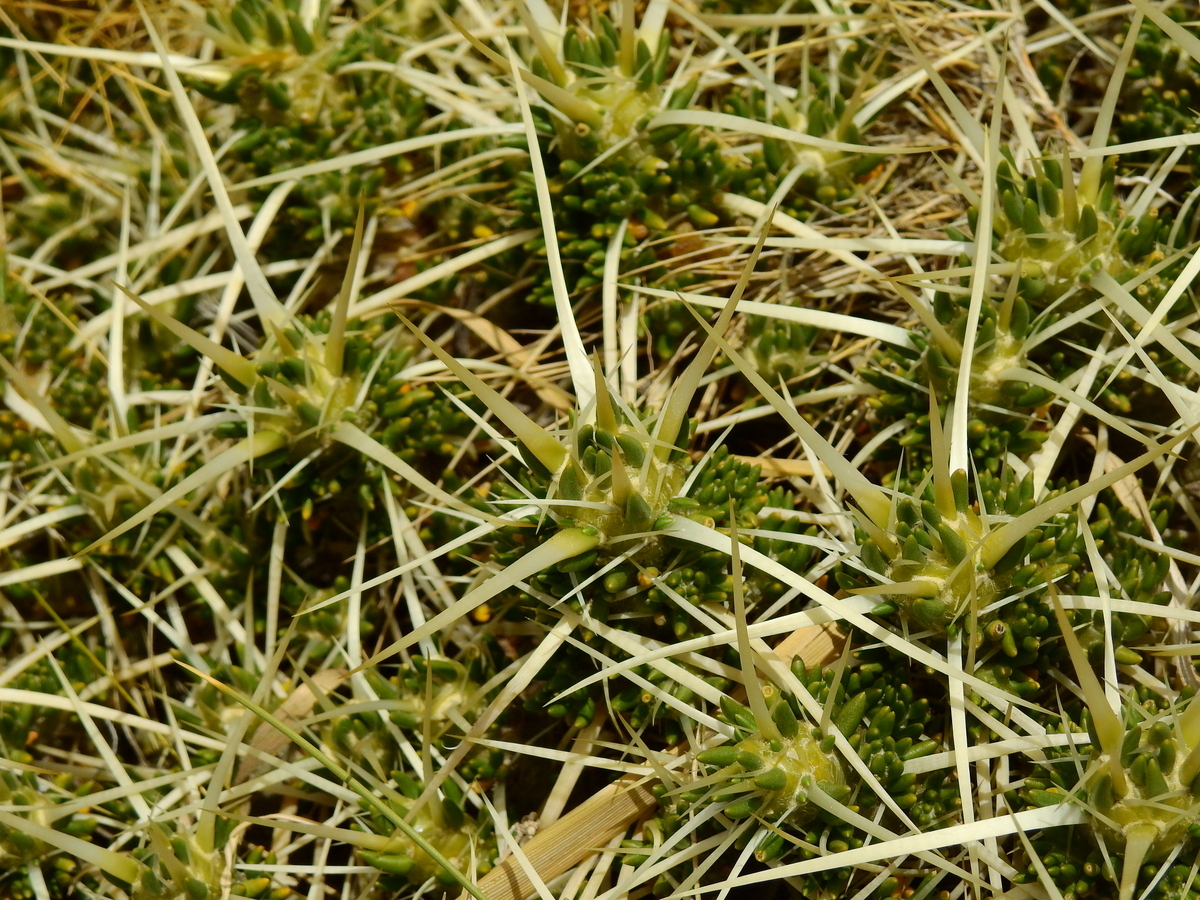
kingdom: Plantae
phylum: Tracheophyta
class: Magnoliopsida
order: Caryophyllales
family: Cactaceae
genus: Maihuenia
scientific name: Maihuenia patagonica
